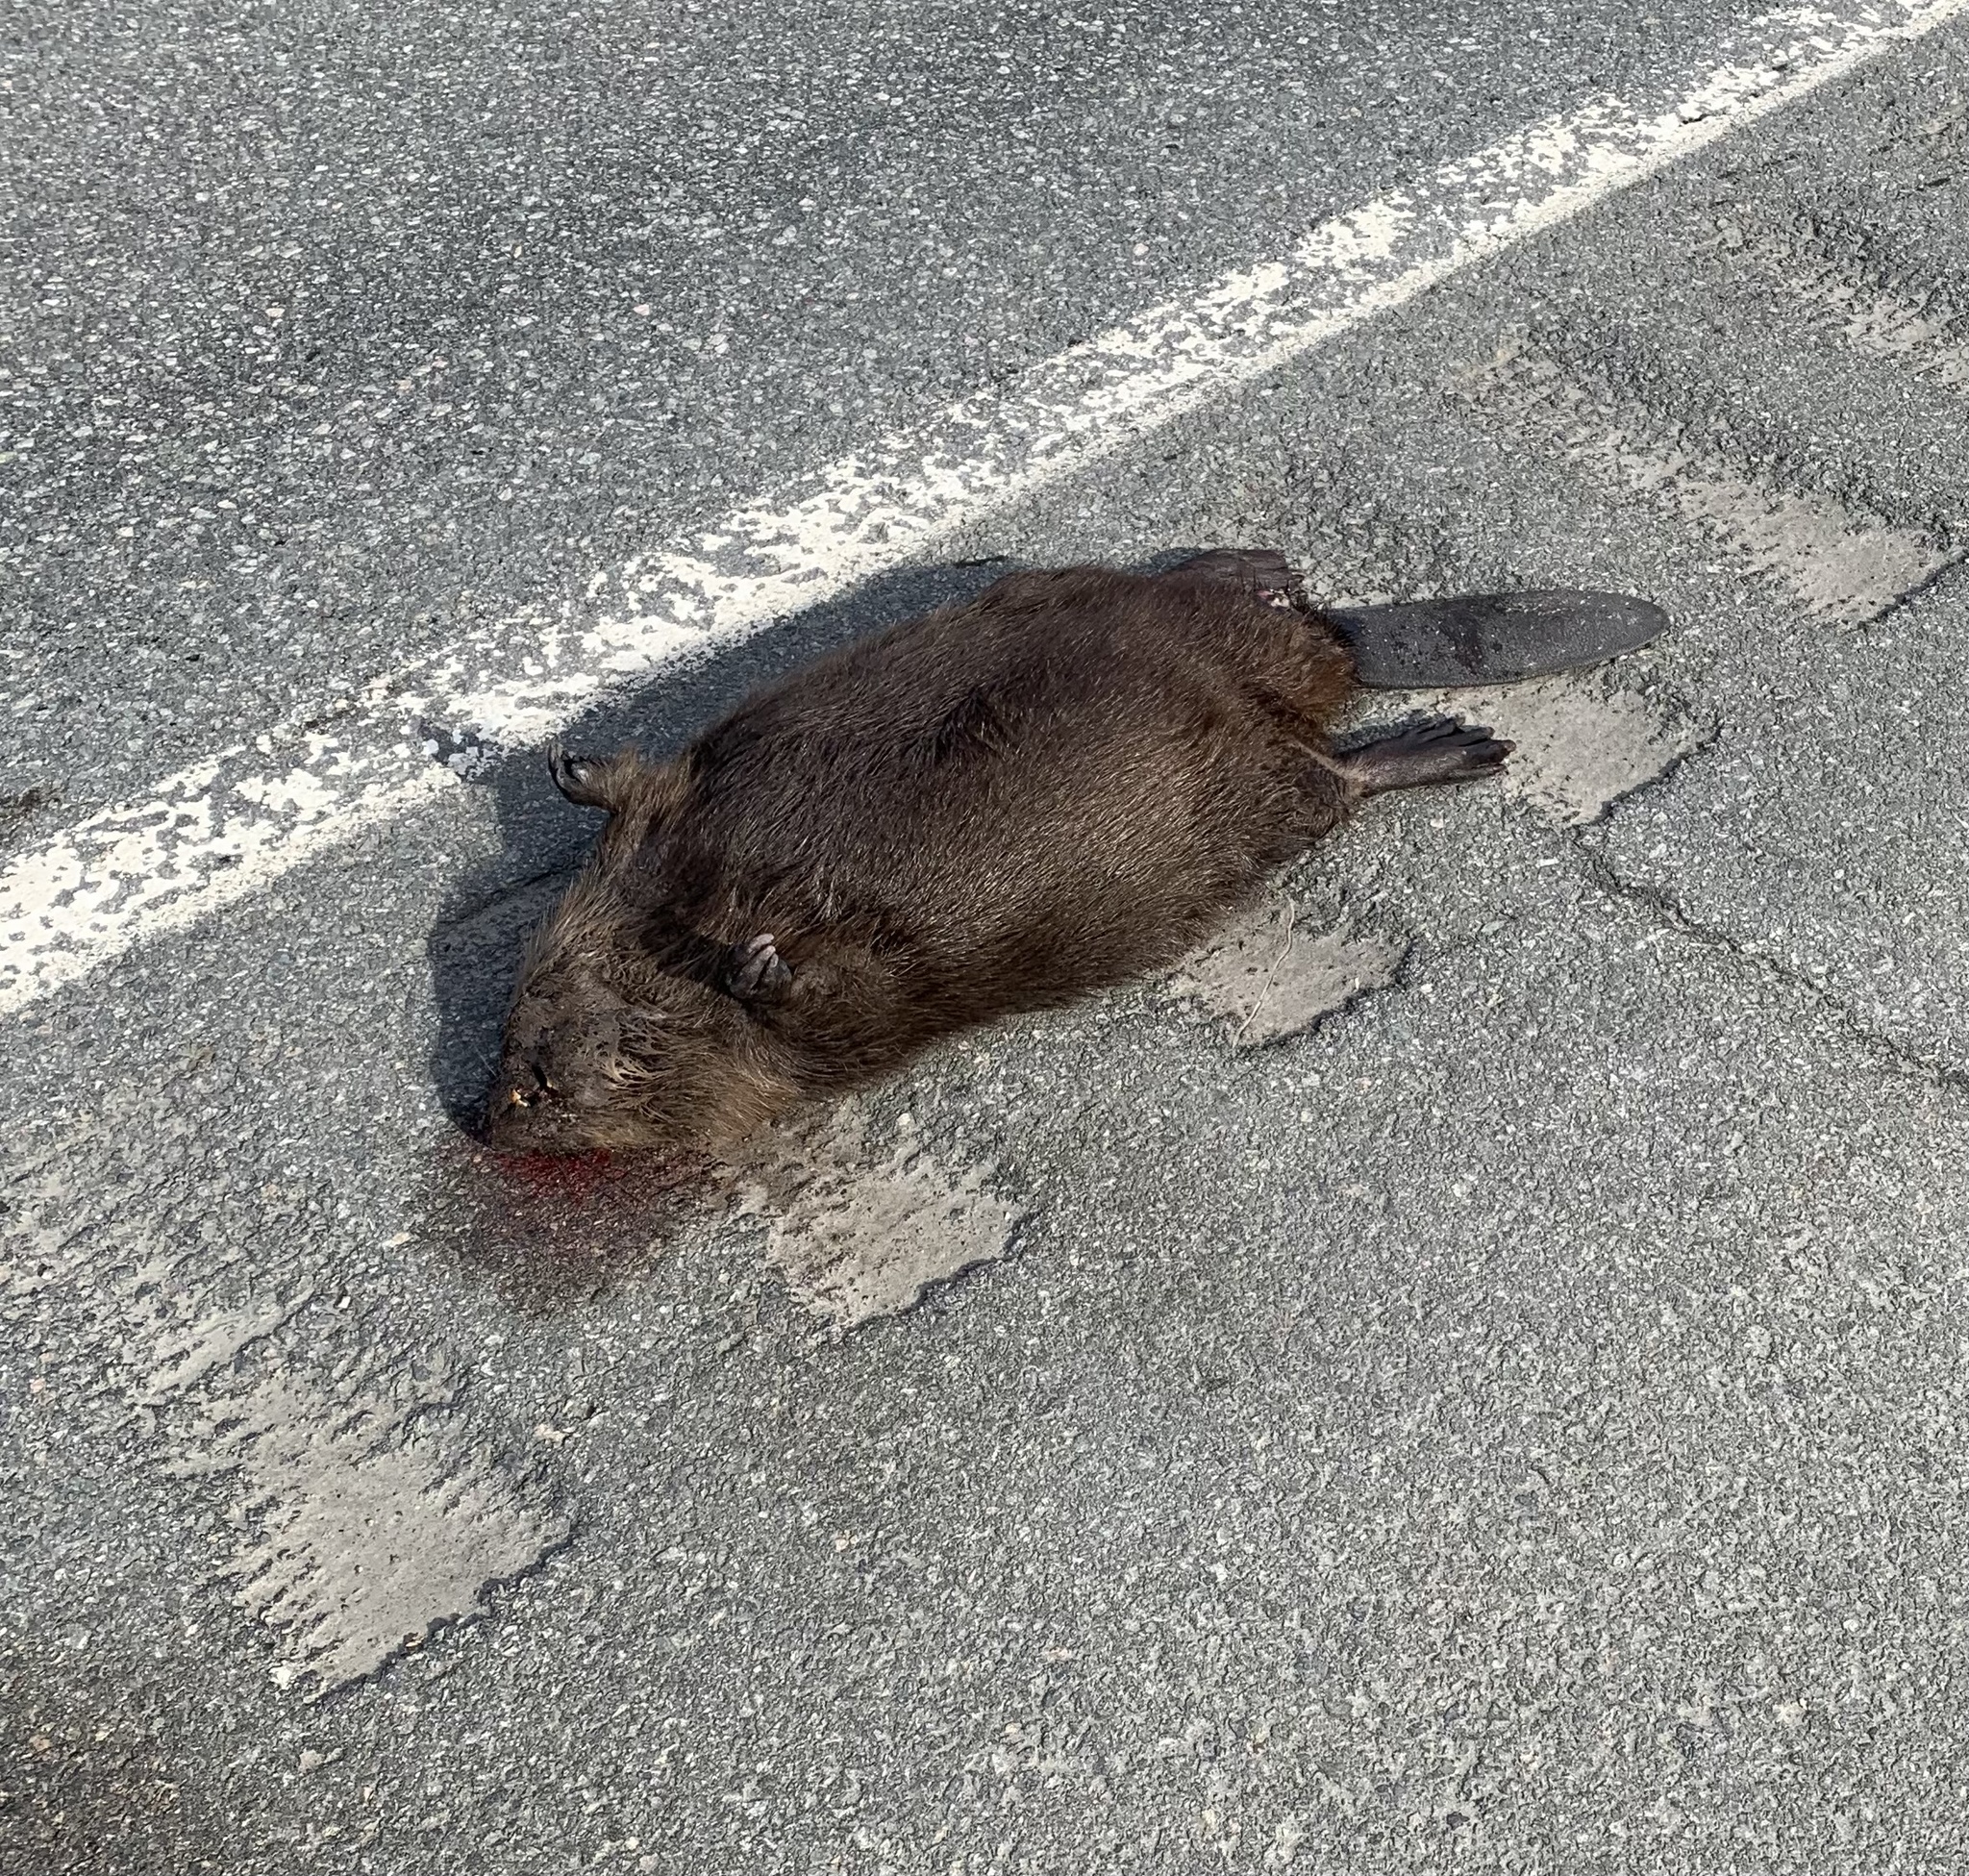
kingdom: Animalia
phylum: Chordata
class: Mammalia
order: Rodentia
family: Castoridae
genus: Castor
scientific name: Castor canadensis
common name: American beaver
